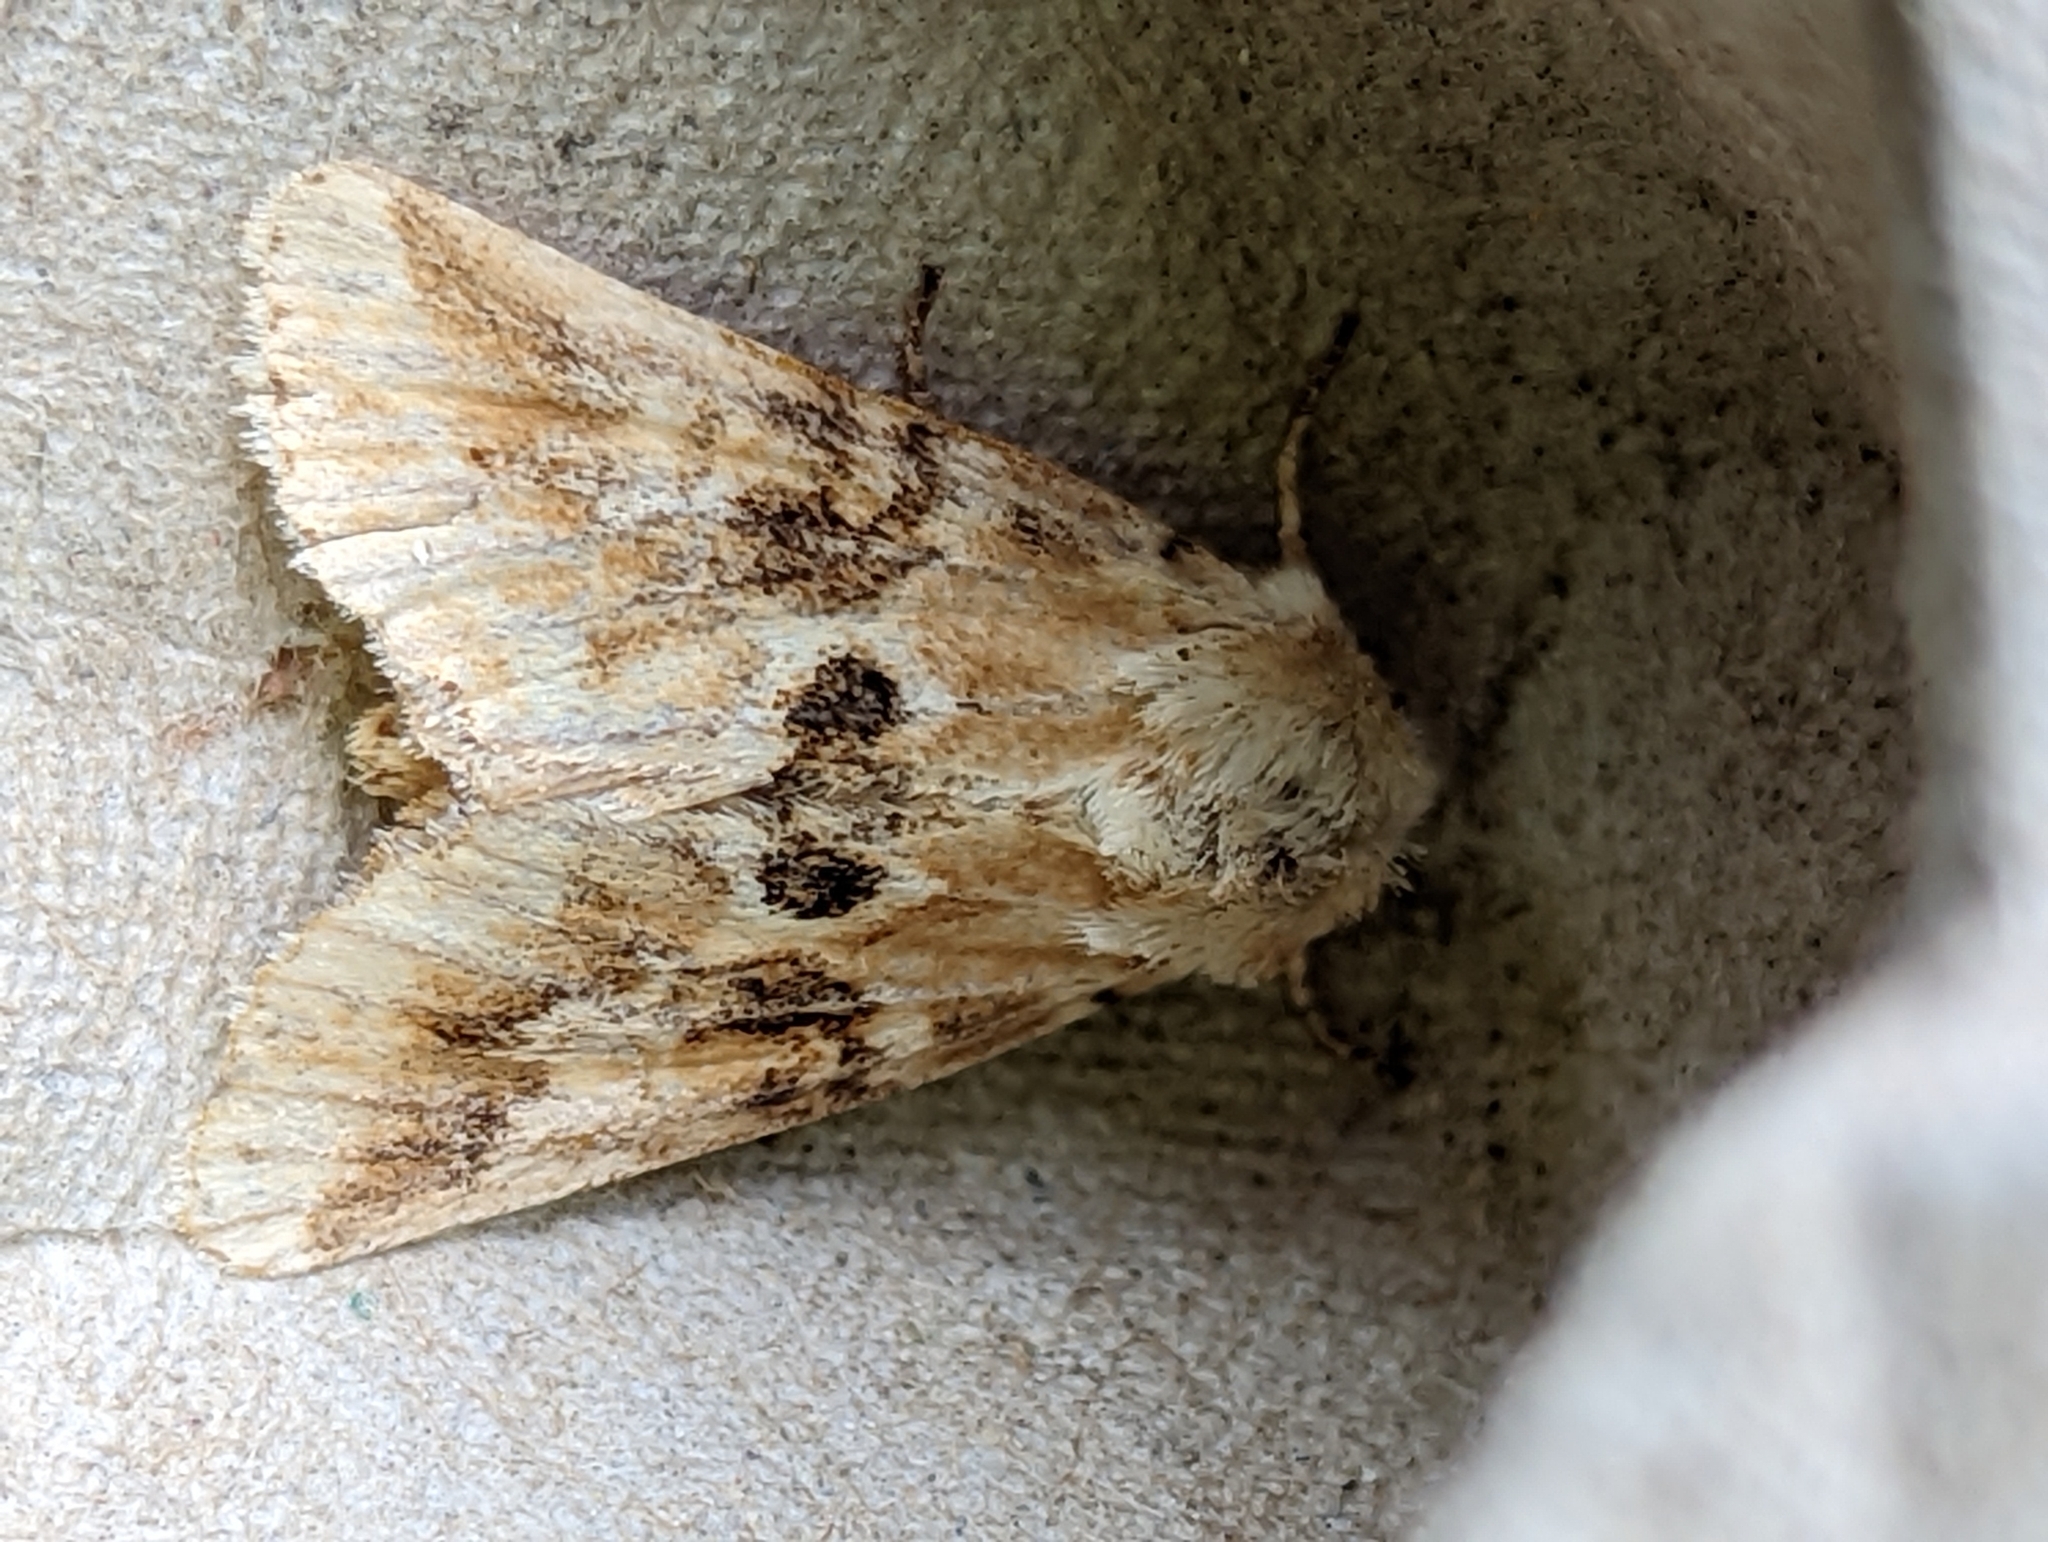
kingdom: Animalia
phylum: Arthropoda
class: Insecta
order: Lepidoptera
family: Noctuidae
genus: Eremobia
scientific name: Eremobia ochroleuca
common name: Dusky sallow
